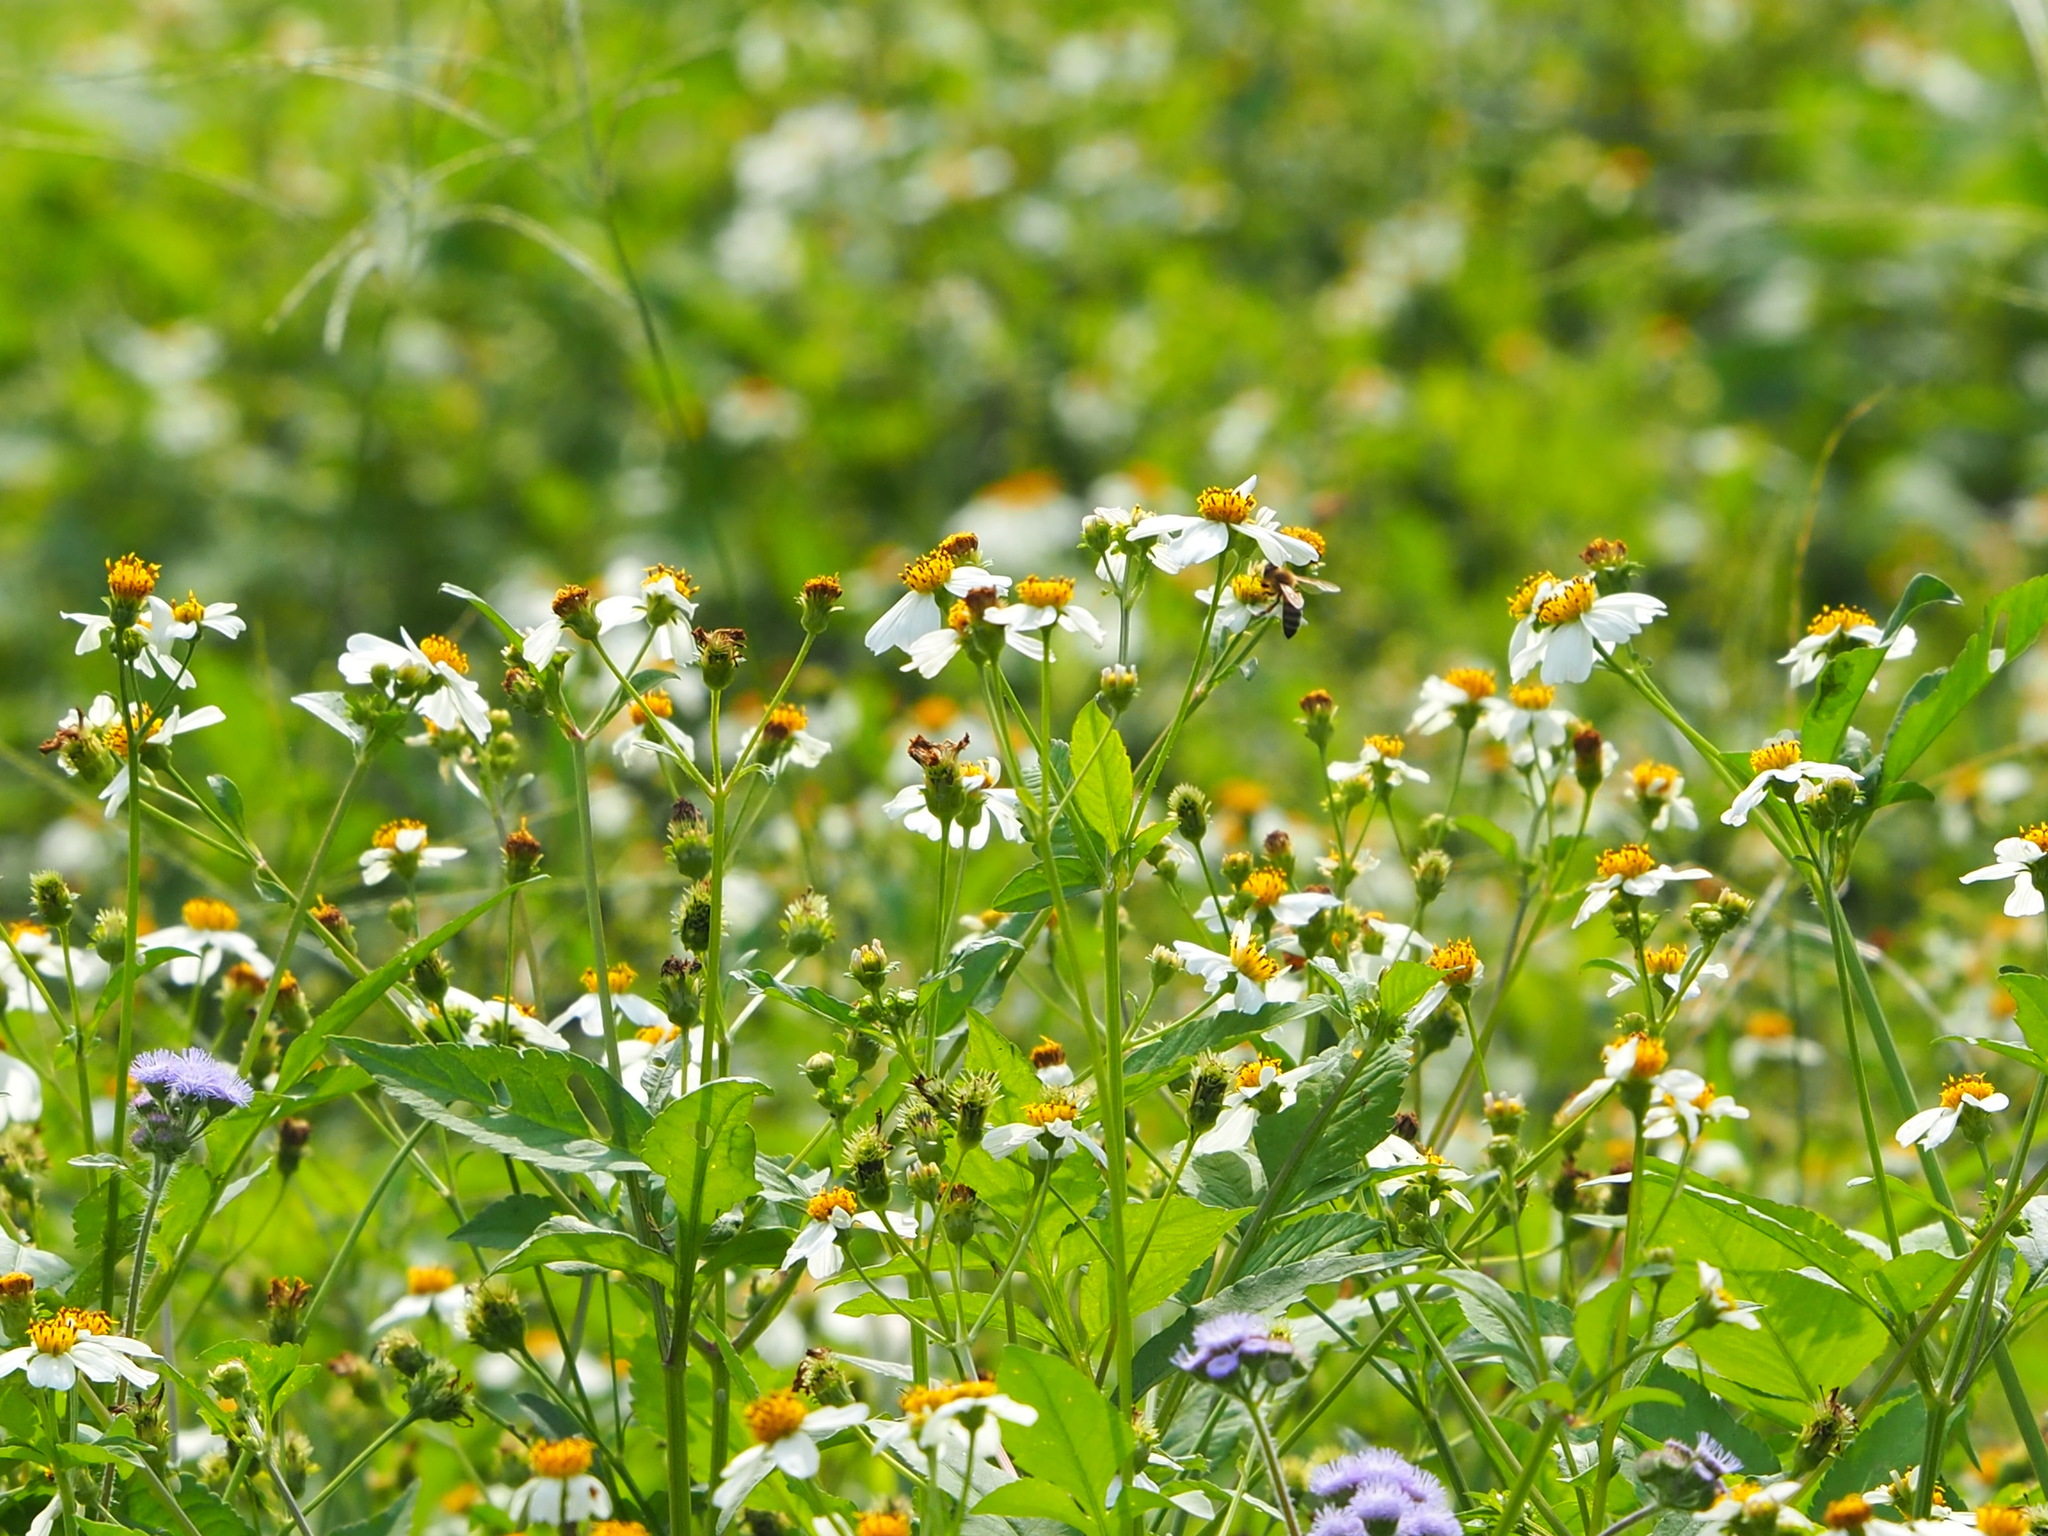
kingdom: Plantae
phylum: Tracheophyta
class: Magnoliopsida
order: Asterales
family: Asteraceae
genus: Bidens
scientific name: Bidens alba
